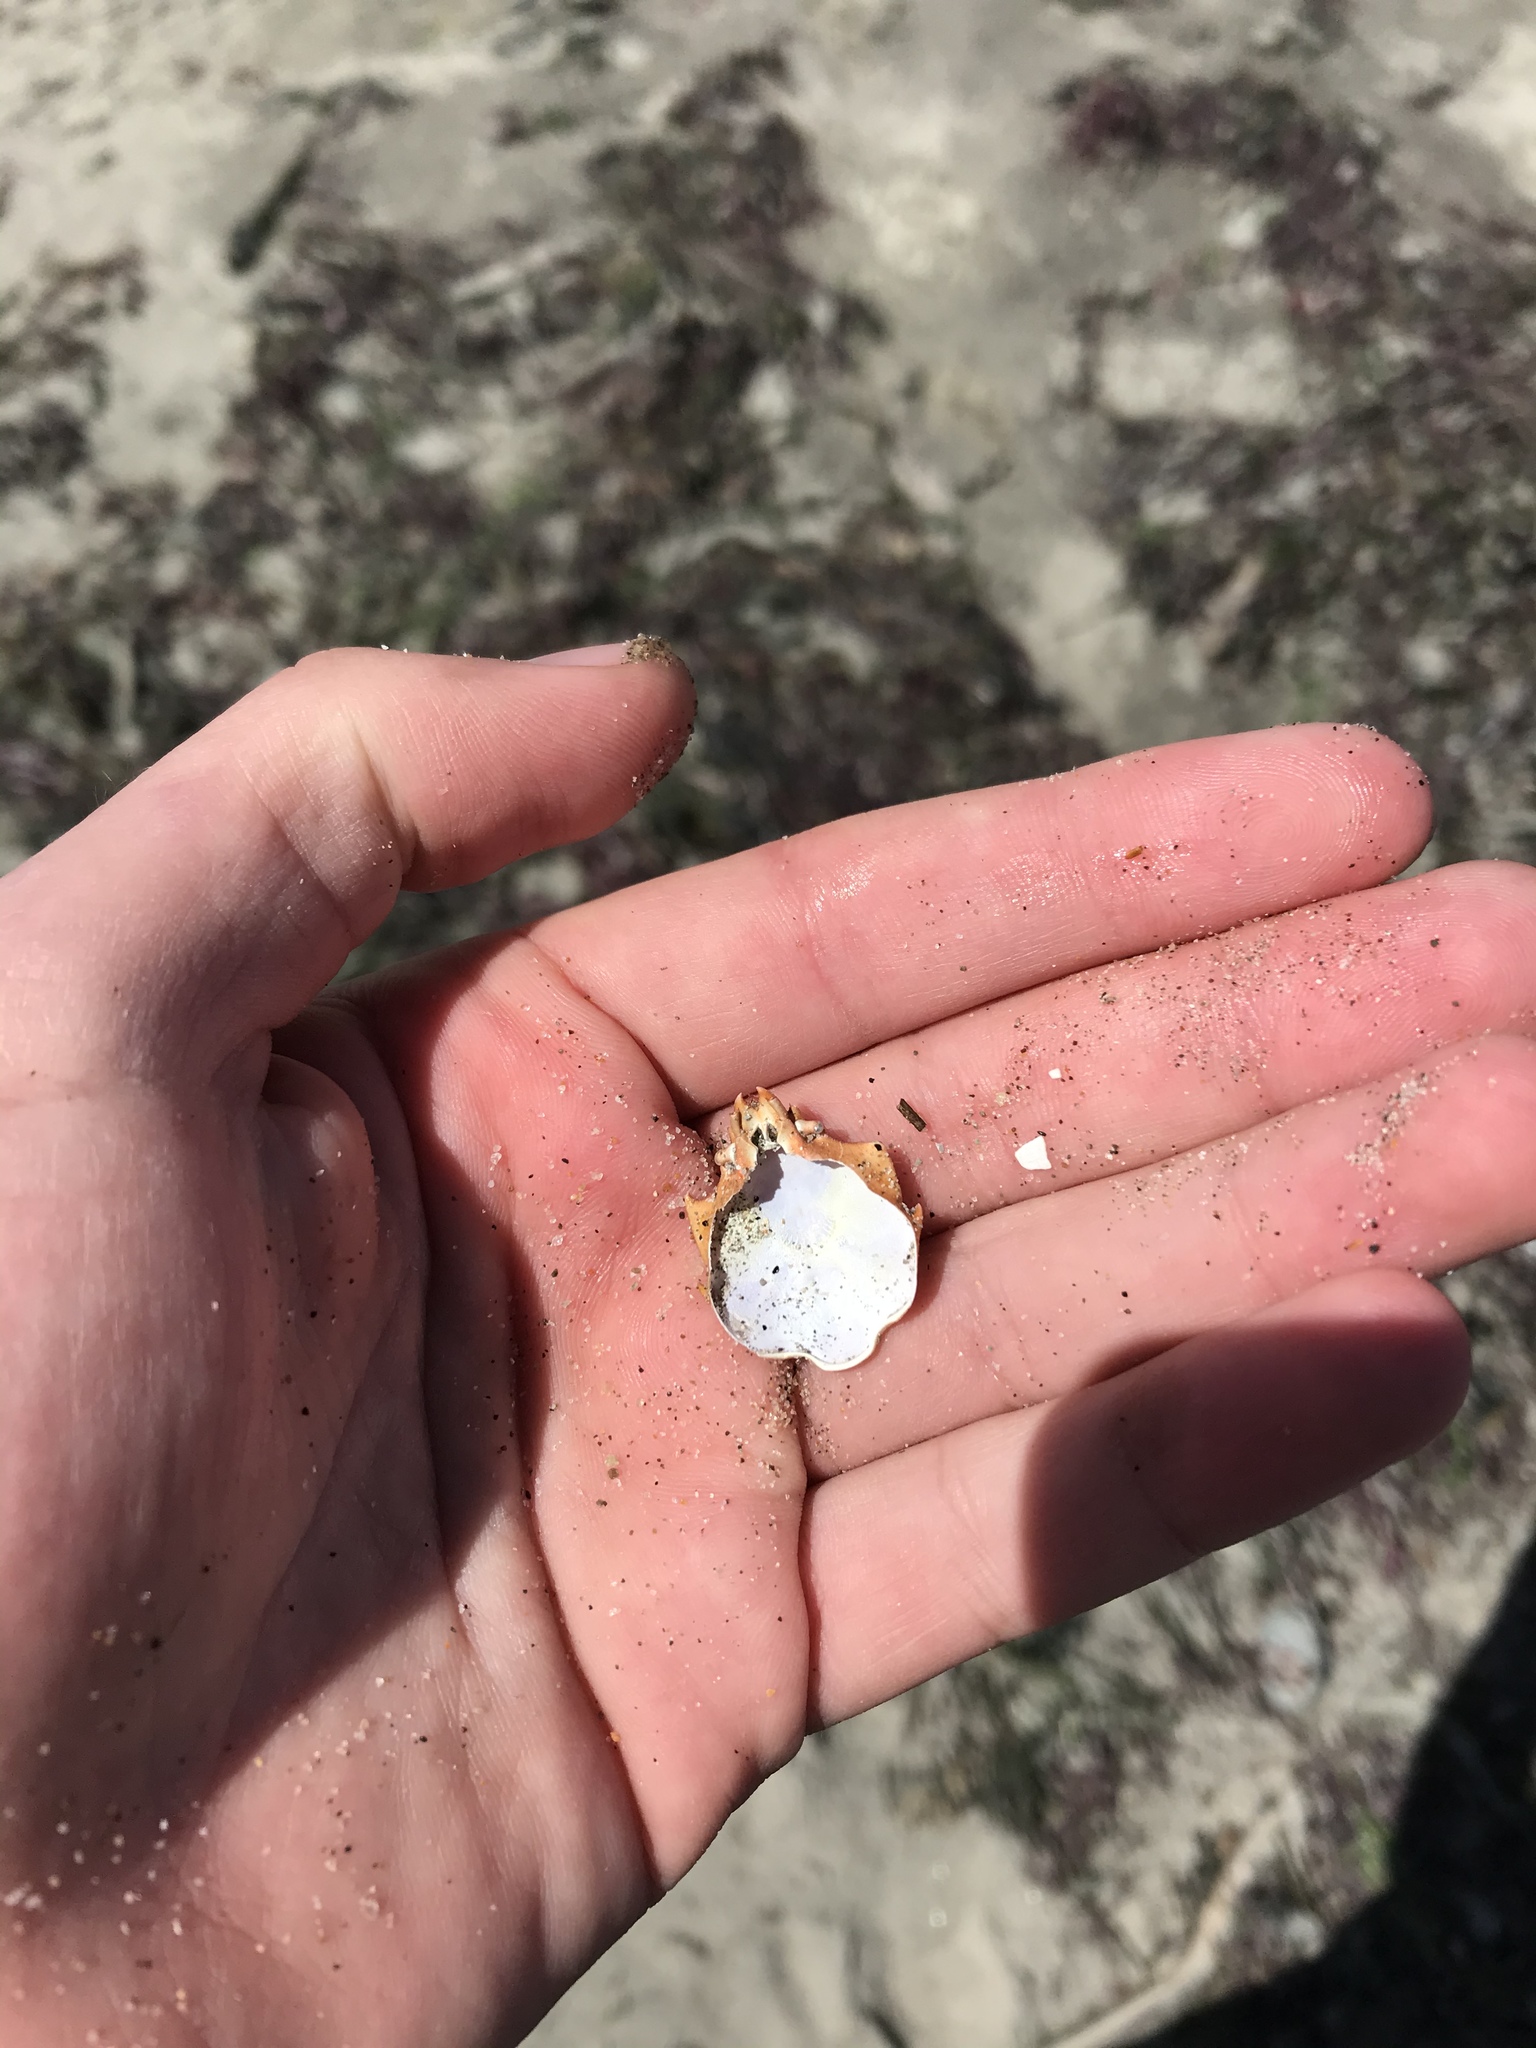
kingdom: Animalia
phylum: Arthropoda
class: Malacostraca
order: Decapoda
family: Epialtidae
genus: Pugettia
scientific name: Pugettia producta
